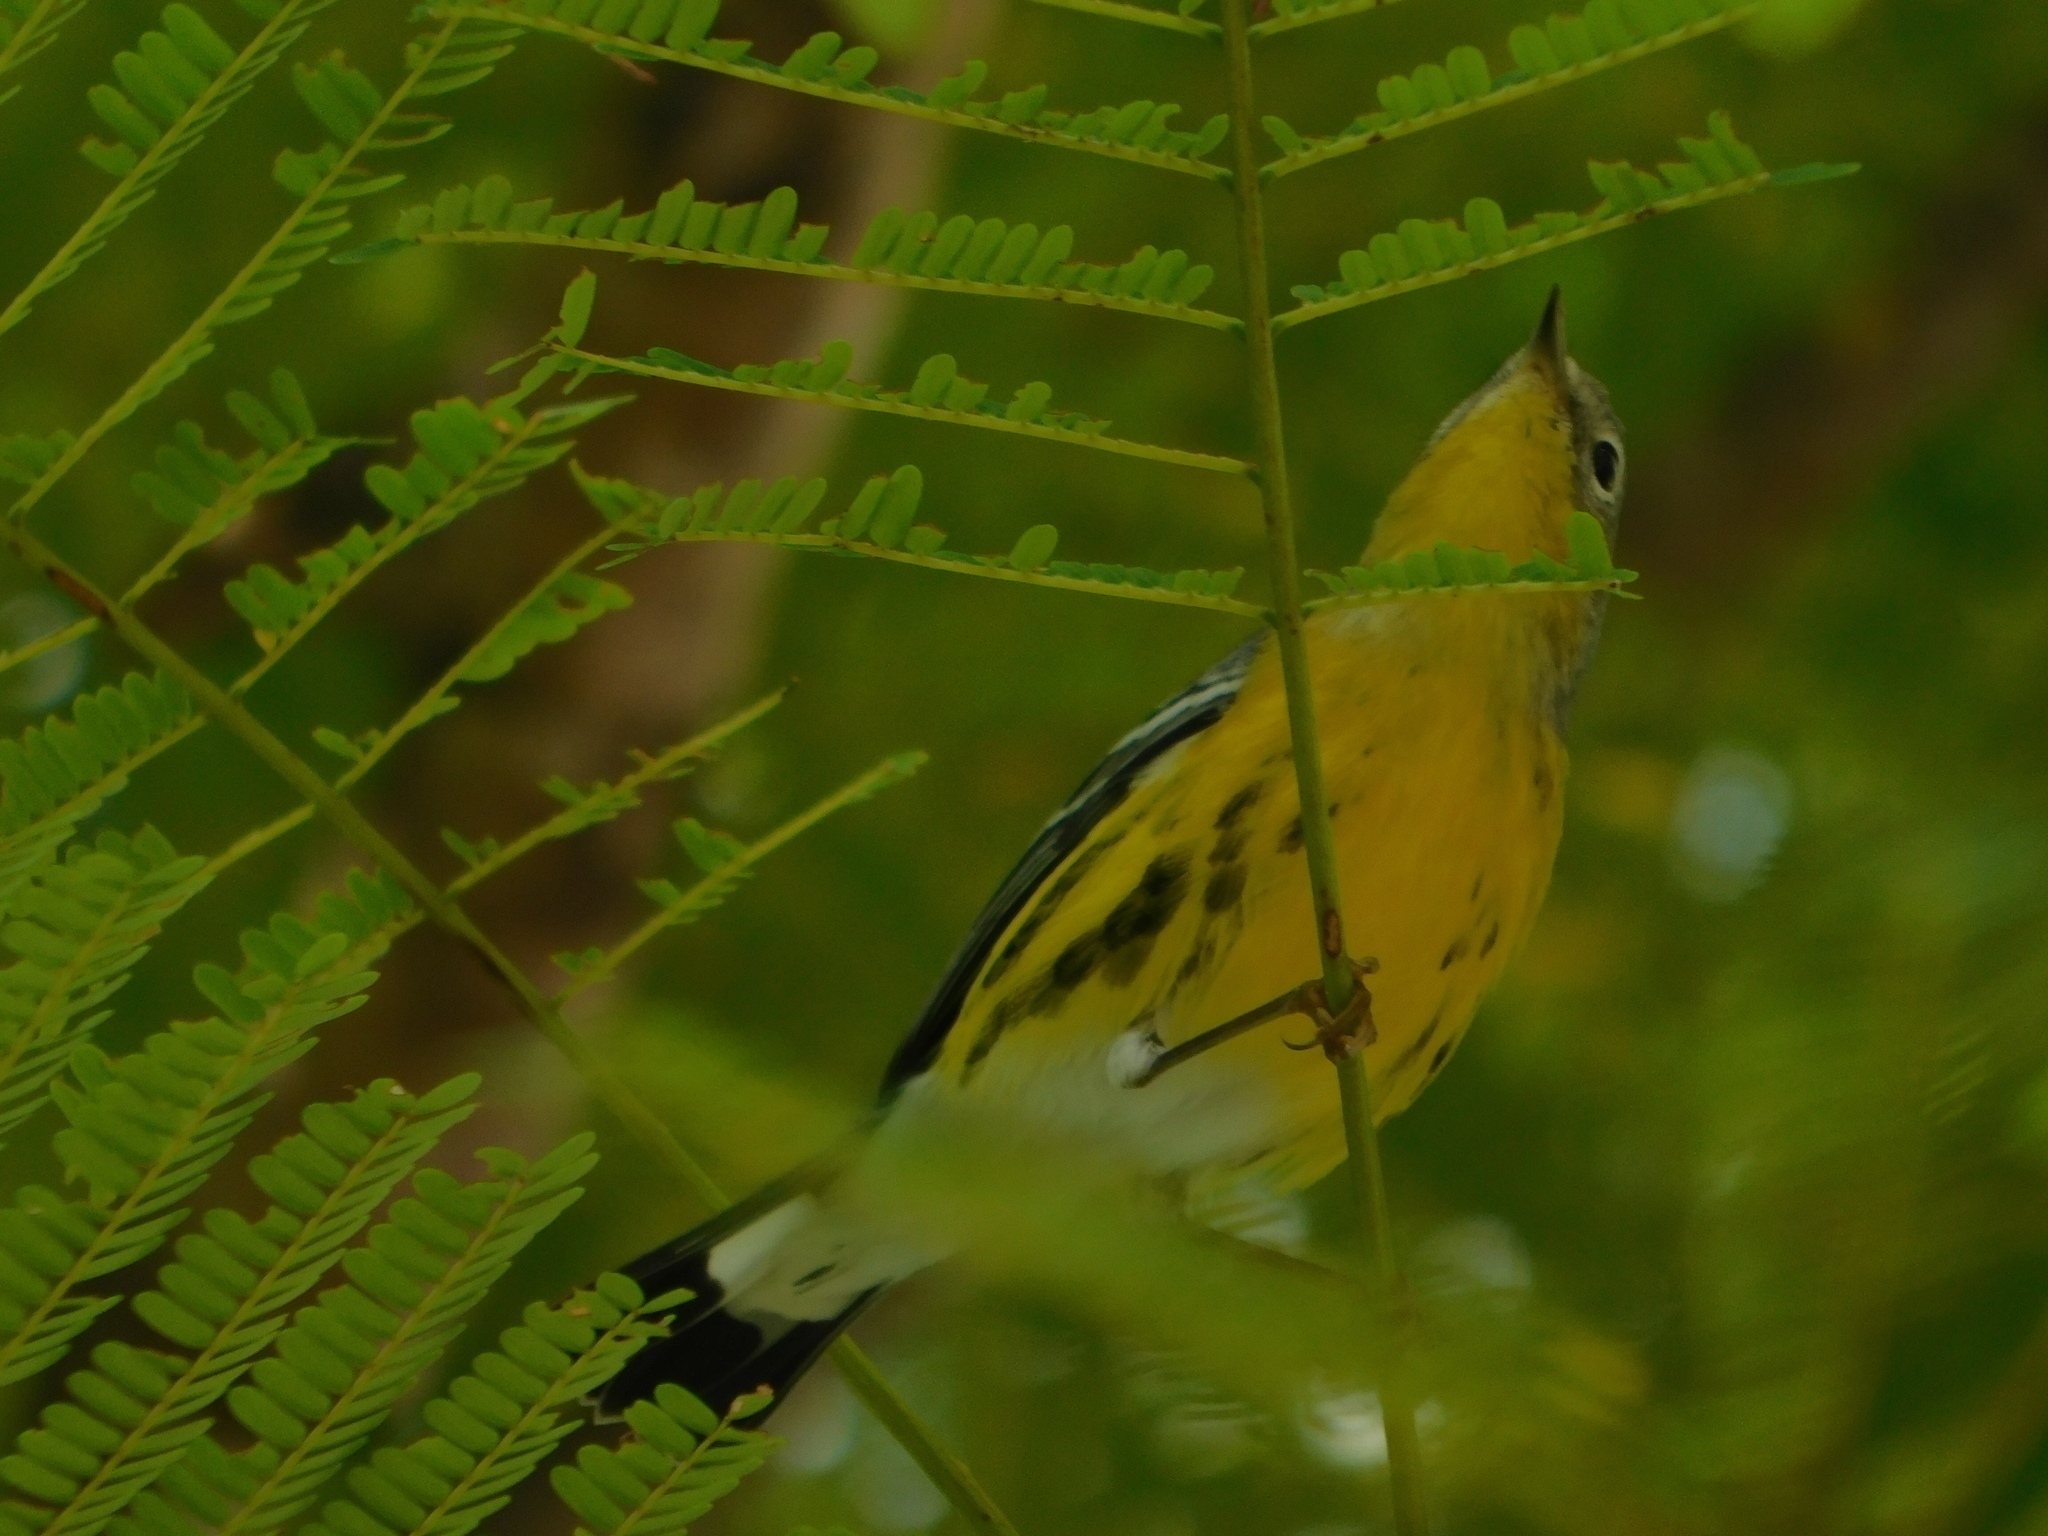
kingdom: Animalia
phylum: Chordata
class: Aves
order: Passeriformes
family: Parulidae
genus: Setophaga
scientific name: Setophaga magnolia
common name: Magnolia warbler
